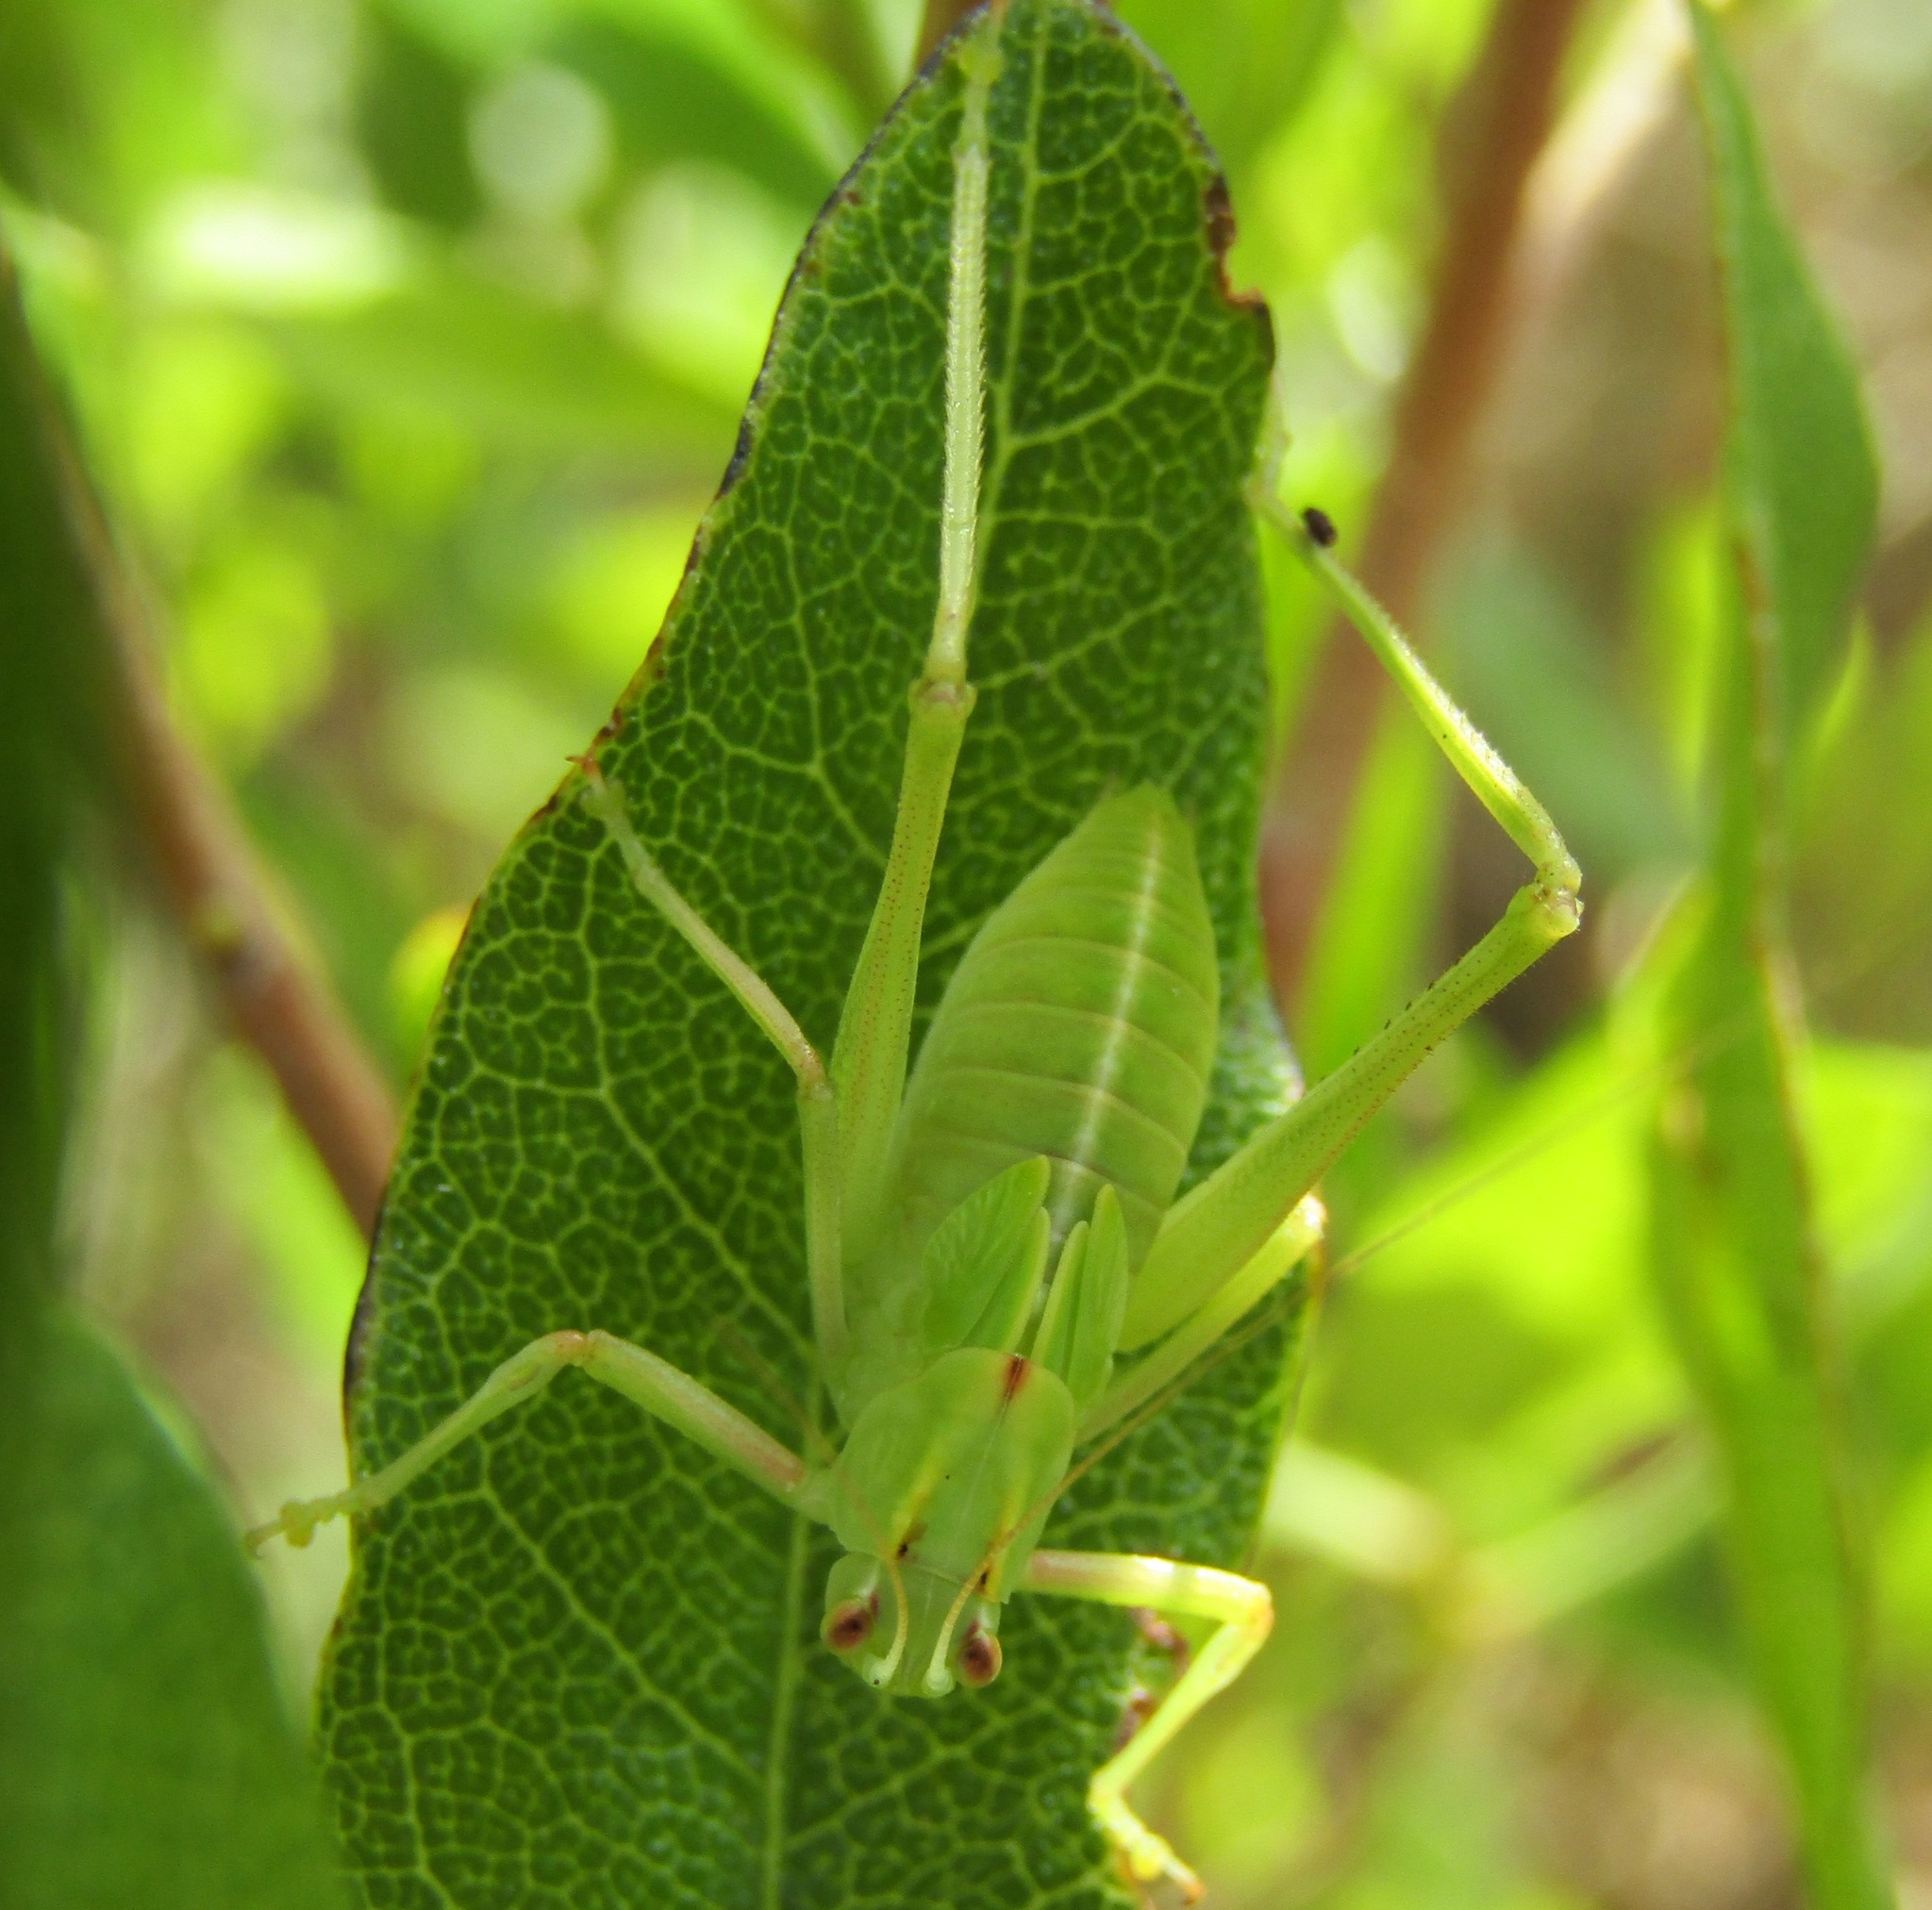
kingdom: Animalia
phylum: Arthropoda
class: Insecta
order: Orthoptera
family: Tettigoniidae
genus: Caedicia
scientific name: Caedicia simplex
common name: Common garden katydid
